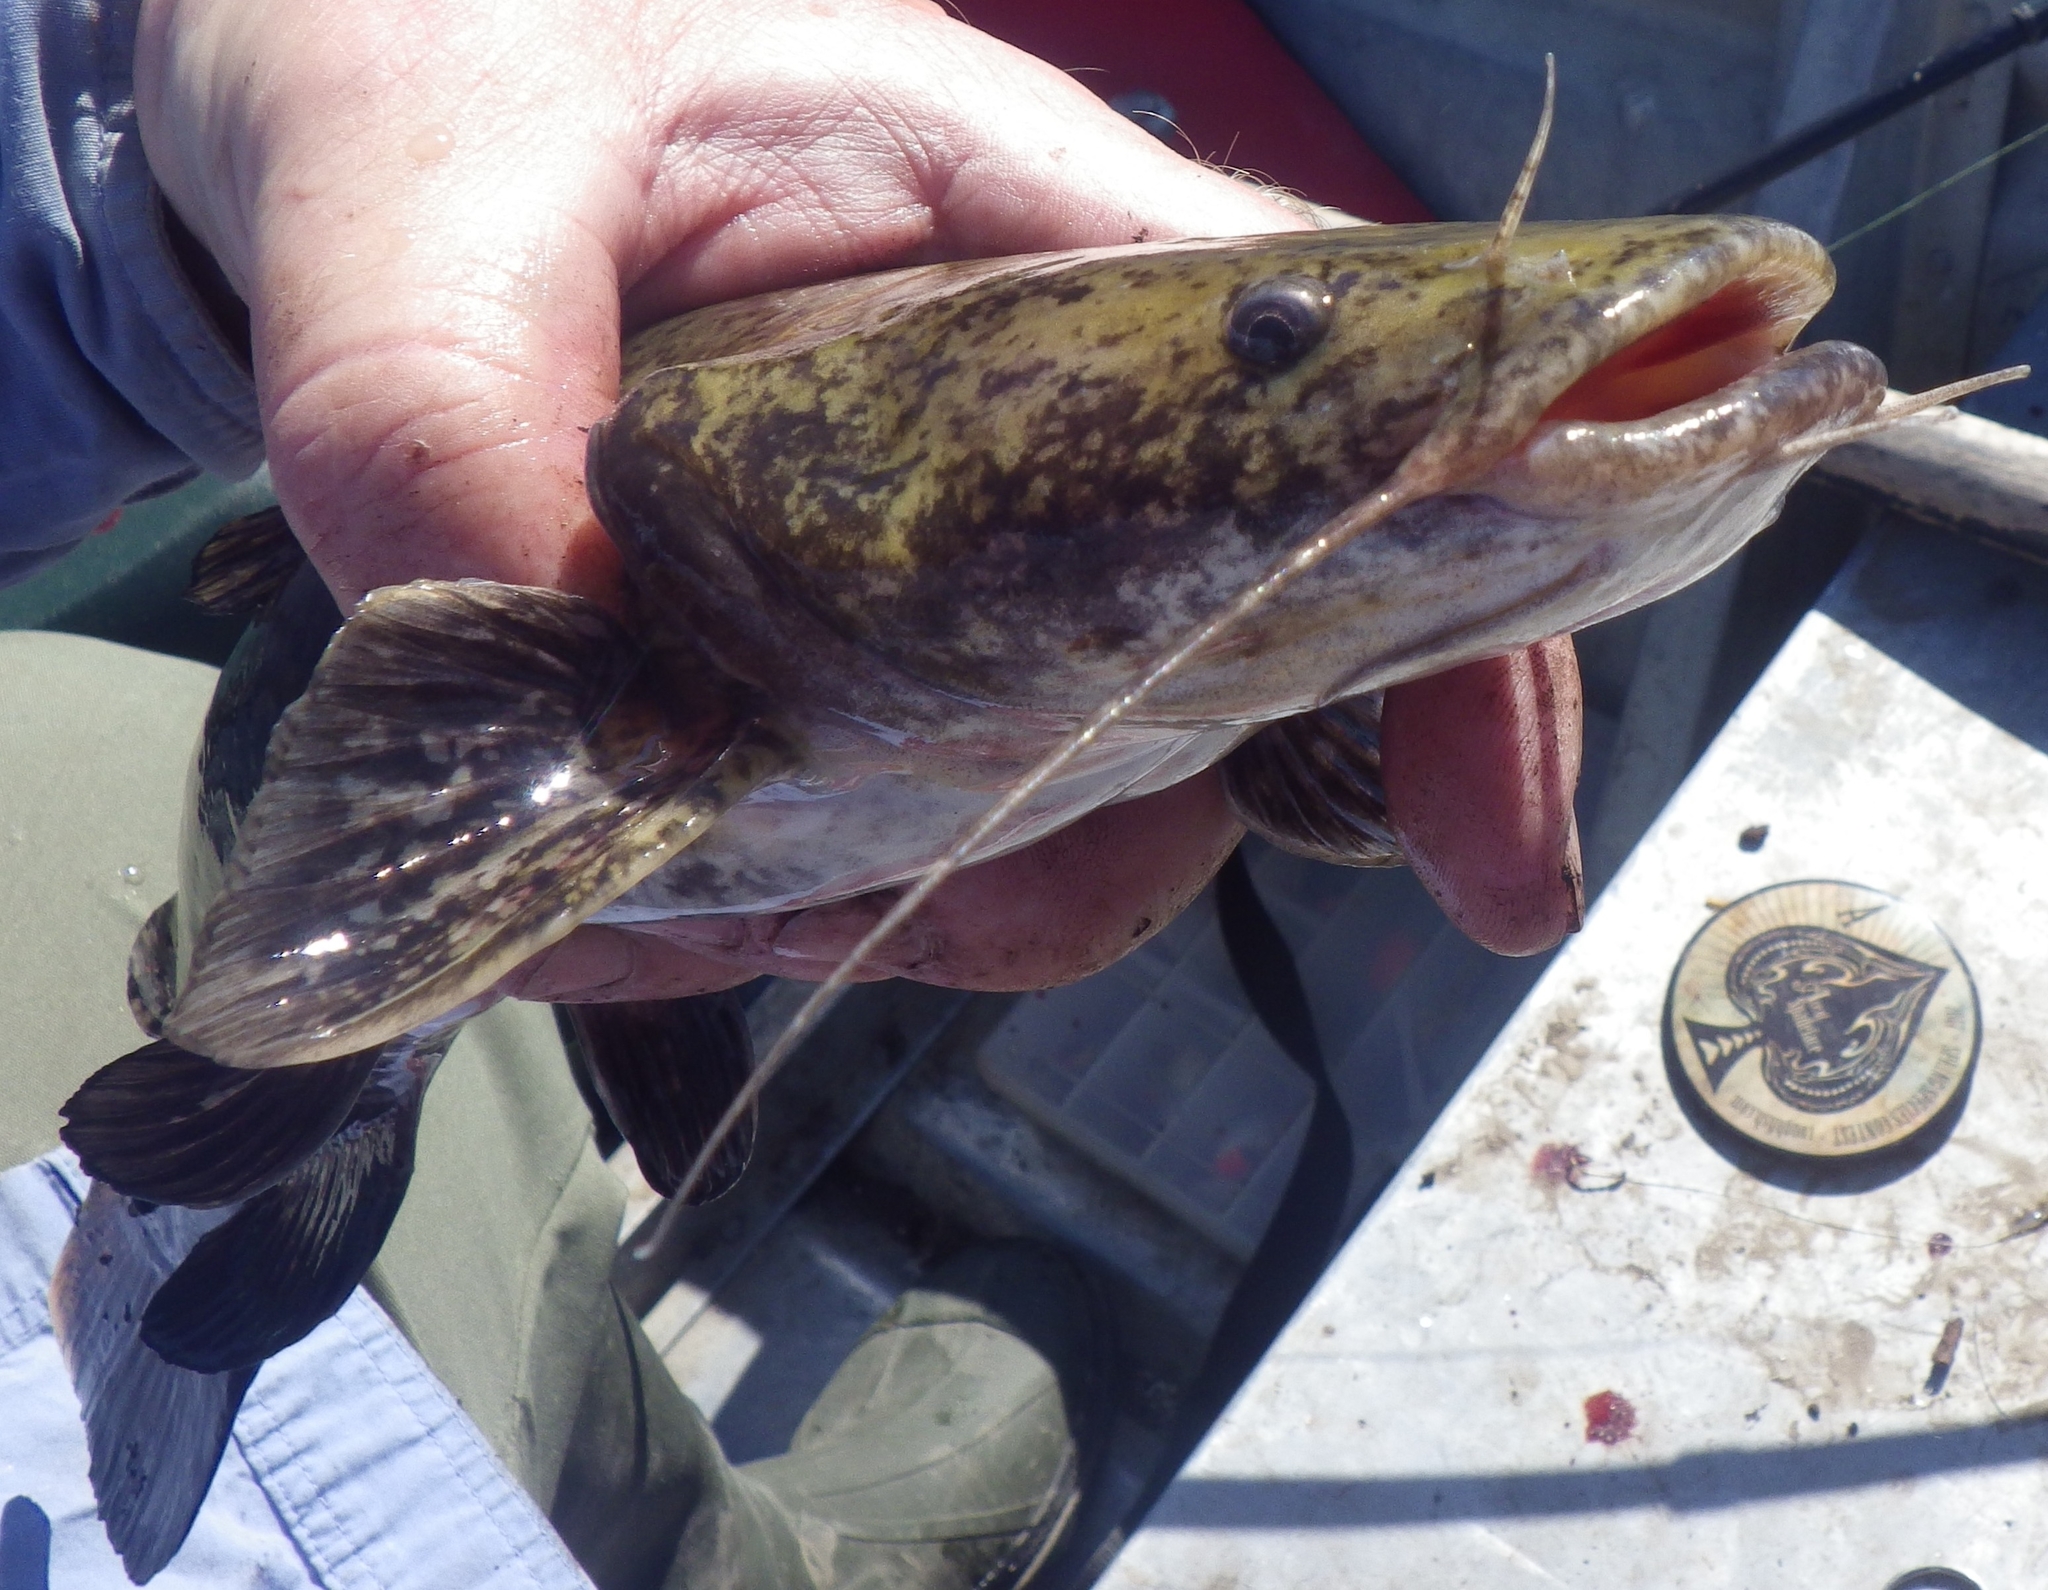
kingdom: Animalia
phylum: Chordata
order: Siluriformes
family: Ictaluridae
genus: Pylodictis
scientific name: Pylodictis olivaris
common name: Flathead catfish
